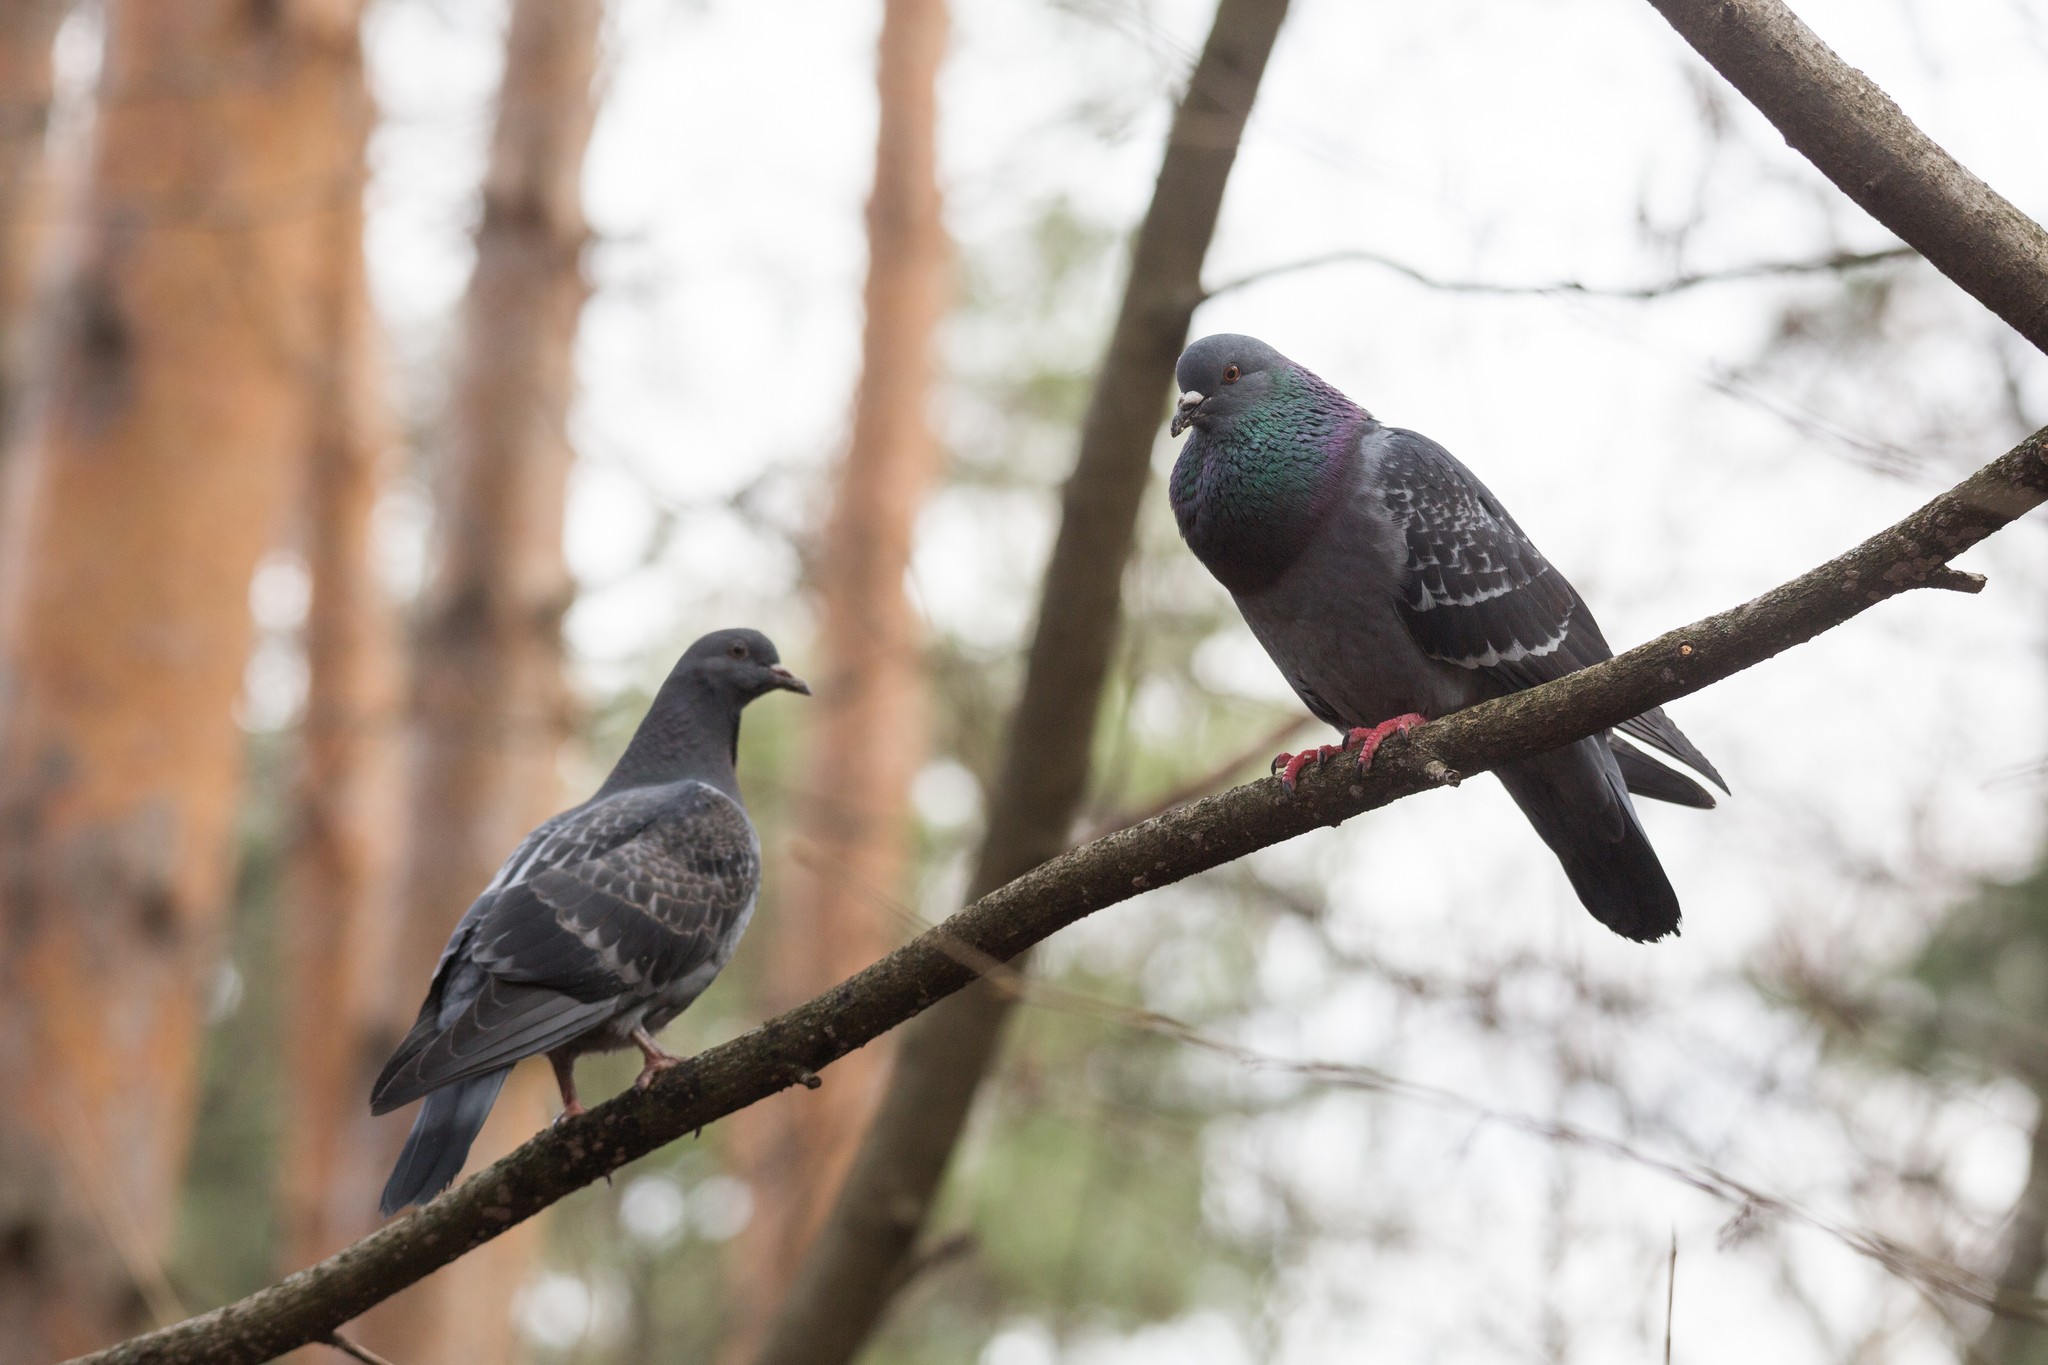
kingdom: Animalia
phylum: Chordata
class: Aves
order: Columbiformes
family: Columbidae
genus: Columba
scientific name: Columba livia
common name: Rock pigeon
